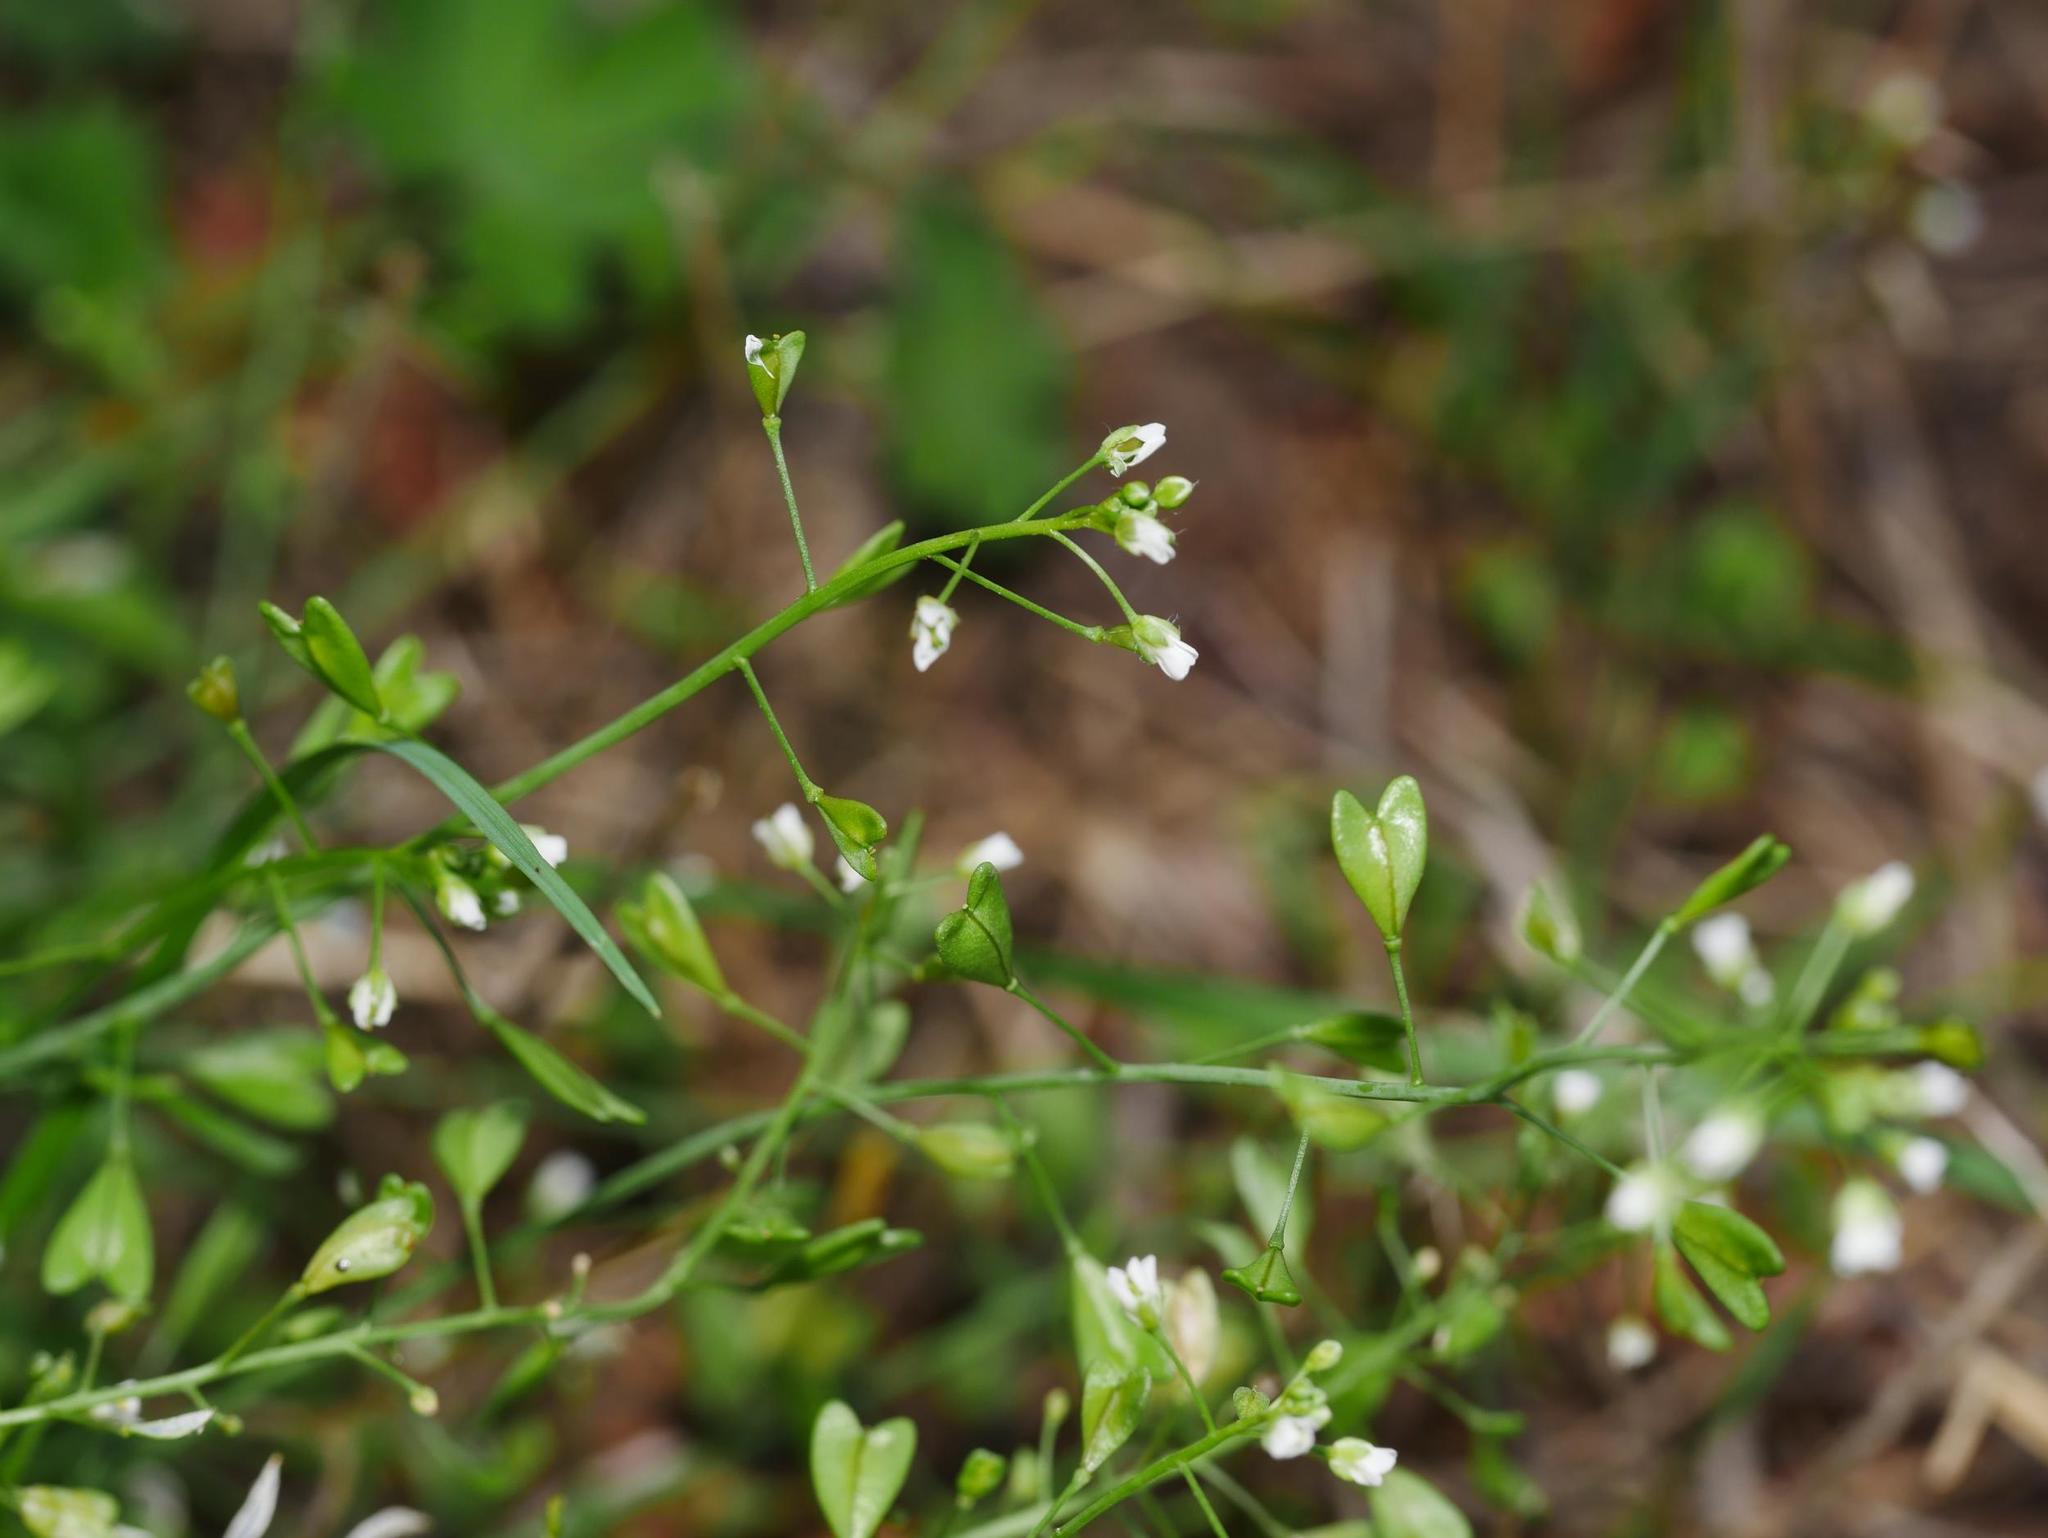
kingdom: Plantae
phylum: Tracheophyta
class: Magnoliopsida
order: Brassicales
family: Brassicaceae
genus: Capsella
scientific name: Capsella bursa-pastoris
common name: Shepherd's purse
